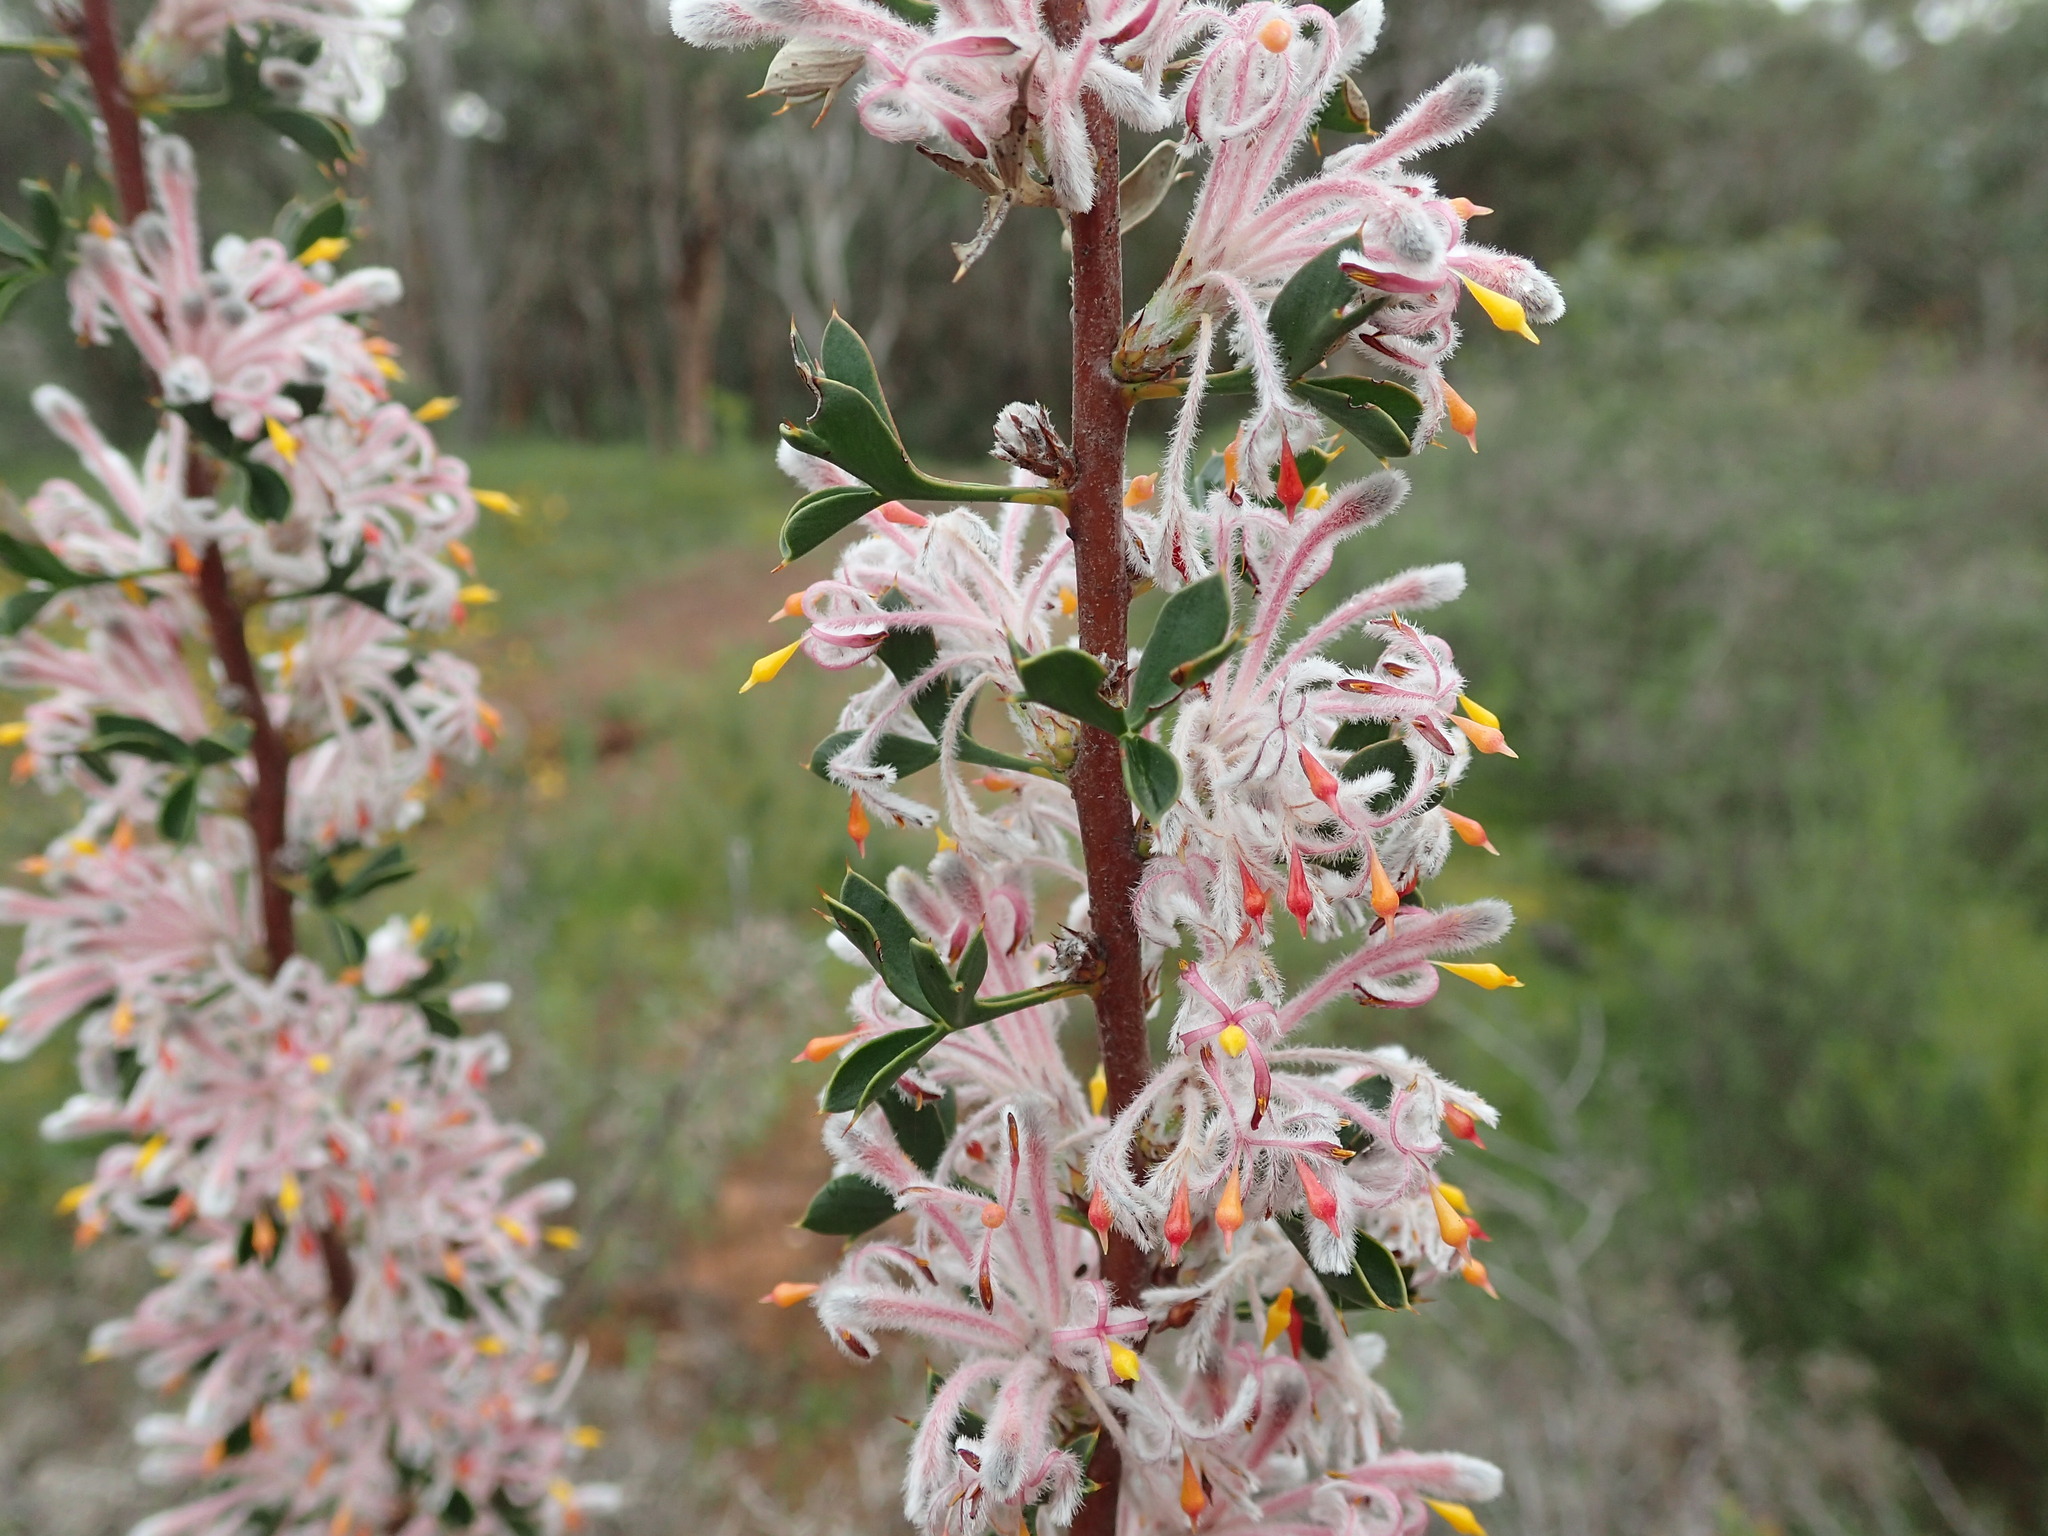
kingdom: Plantae
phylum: Tracheophyta
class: Magnoliopsida
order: Proteales
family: Proteaceae
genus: Petrophile
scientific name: Petrophile biloba
